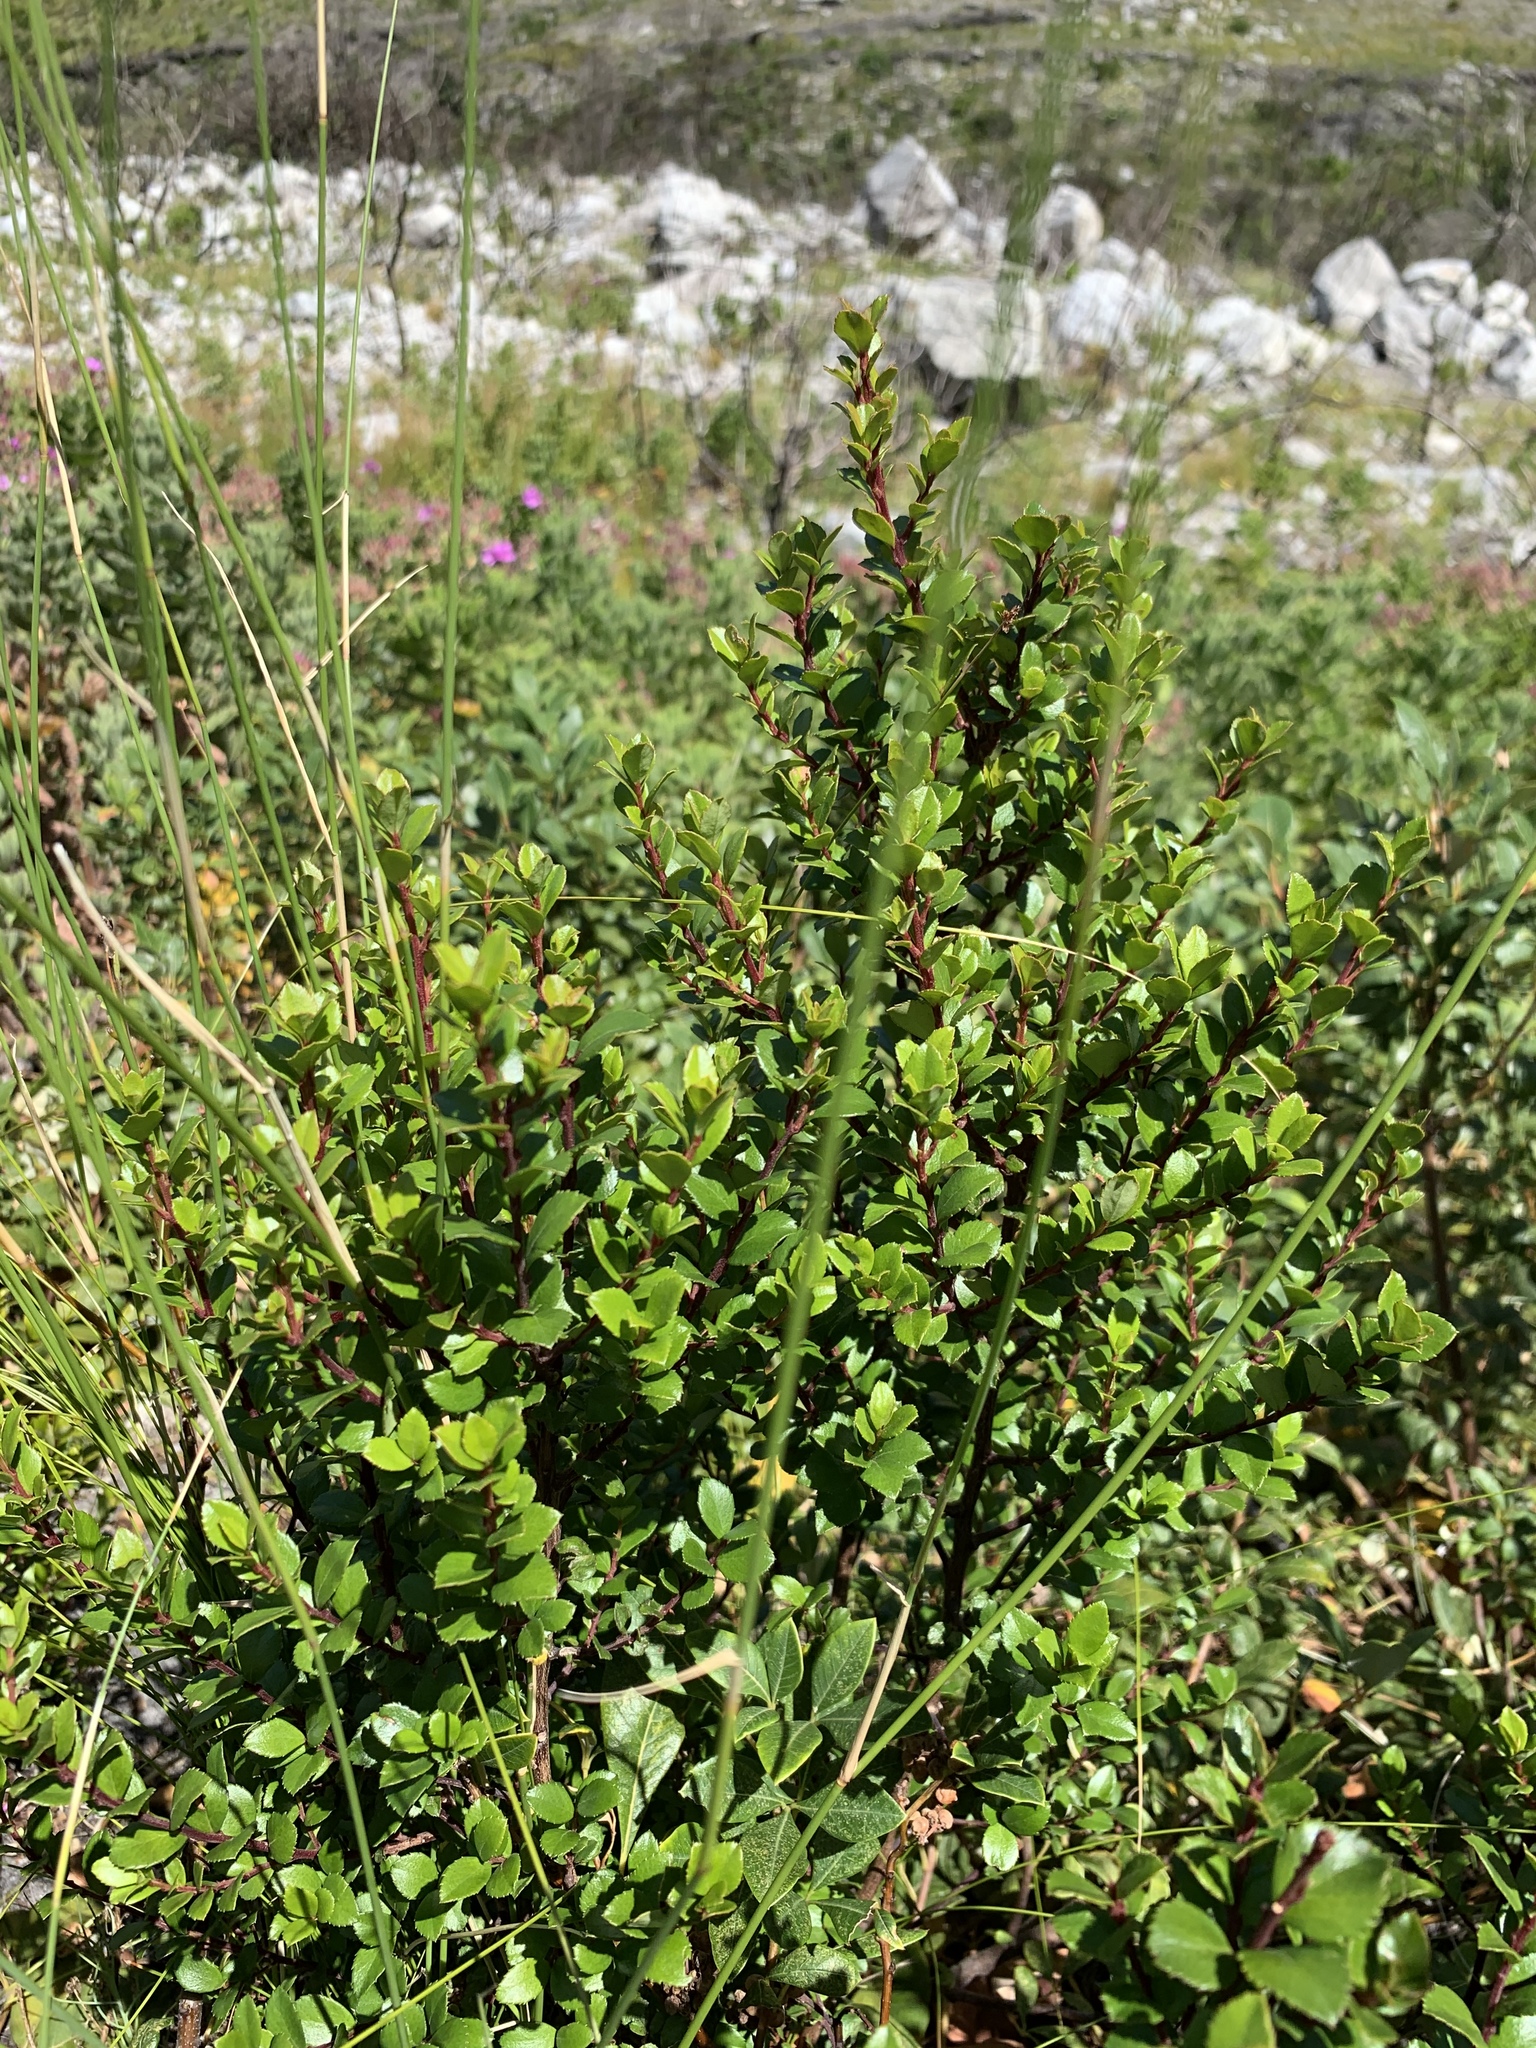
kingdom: Plantae
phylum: Tracheophyta
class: Magnoliopsida
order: Ericales
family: Primulaceae
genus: Myrsine
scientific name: Myrsine africana
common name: African-boxwood
